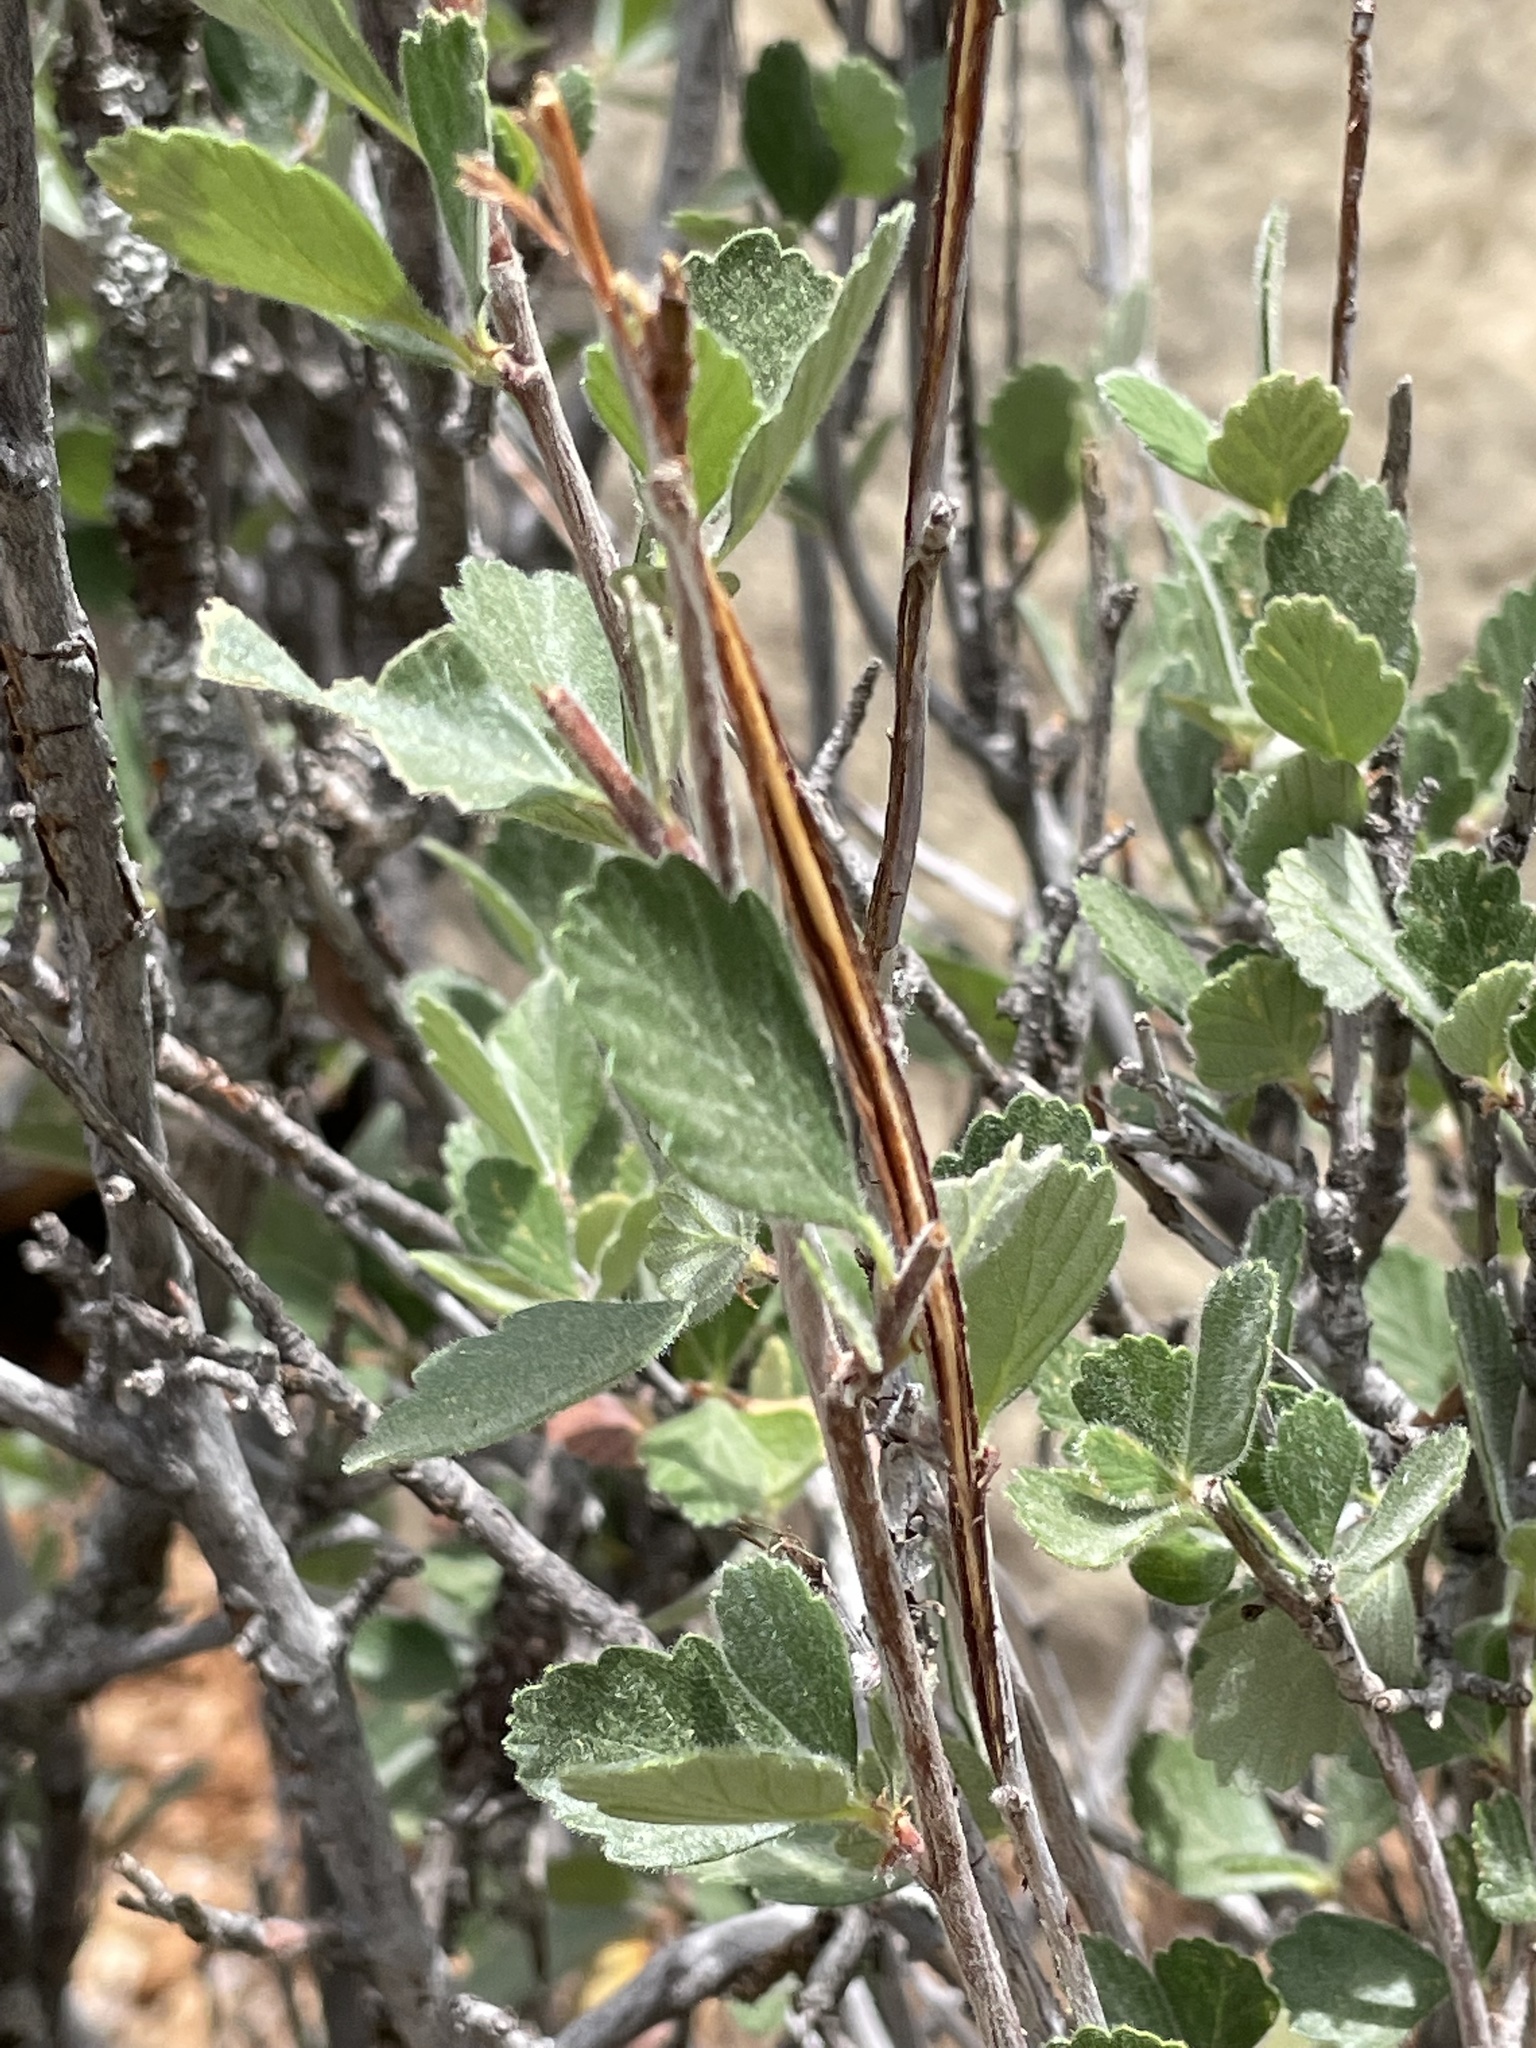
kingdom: Plantae
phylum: Tracheophyta
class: Magnoliopsida
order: Rosales
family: Rosaceae
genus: Cercocarpus
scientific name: Cercocarpus montanus
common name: Alder-leaf cercocarpus
